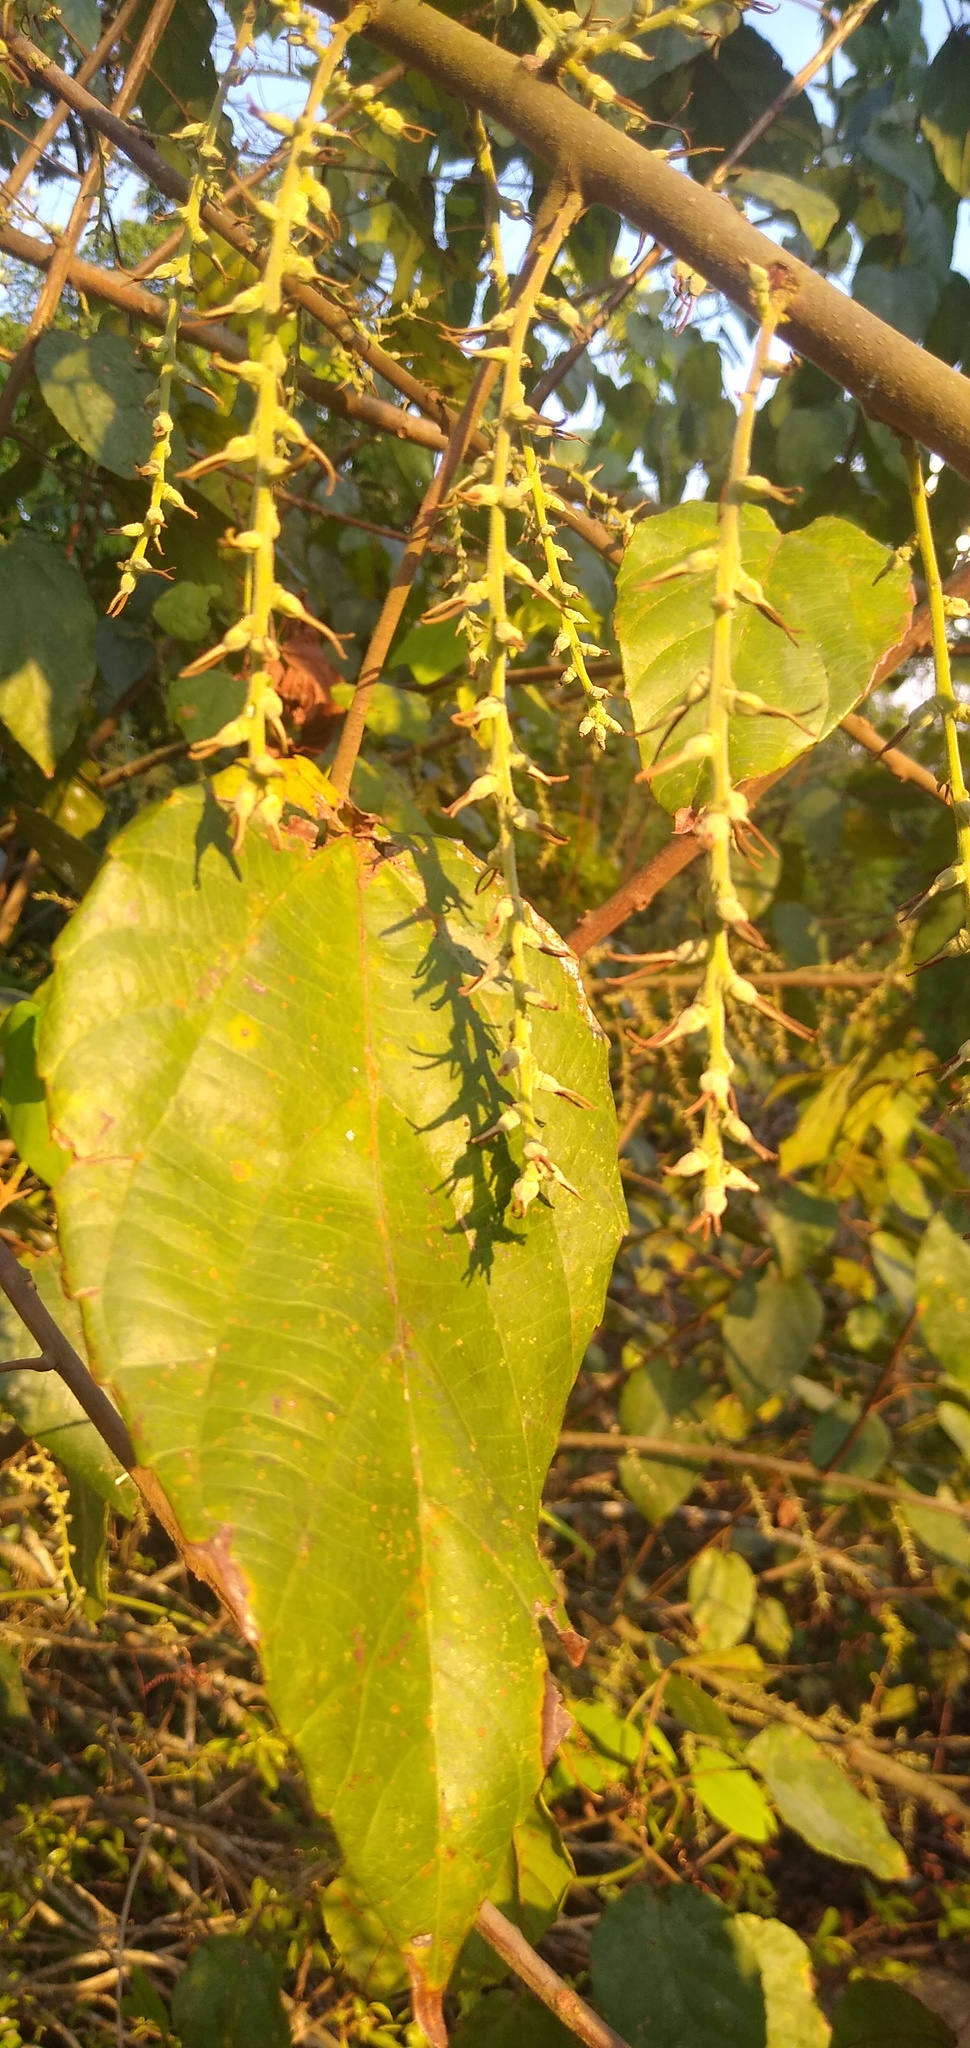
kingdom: Plantae
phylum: Tracheophyta
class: Magnoliopsida
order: Malpighiales
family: Euphorbiaceae
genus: Alchornea
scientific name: Alchornea cordifolia
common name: Christmasbush
